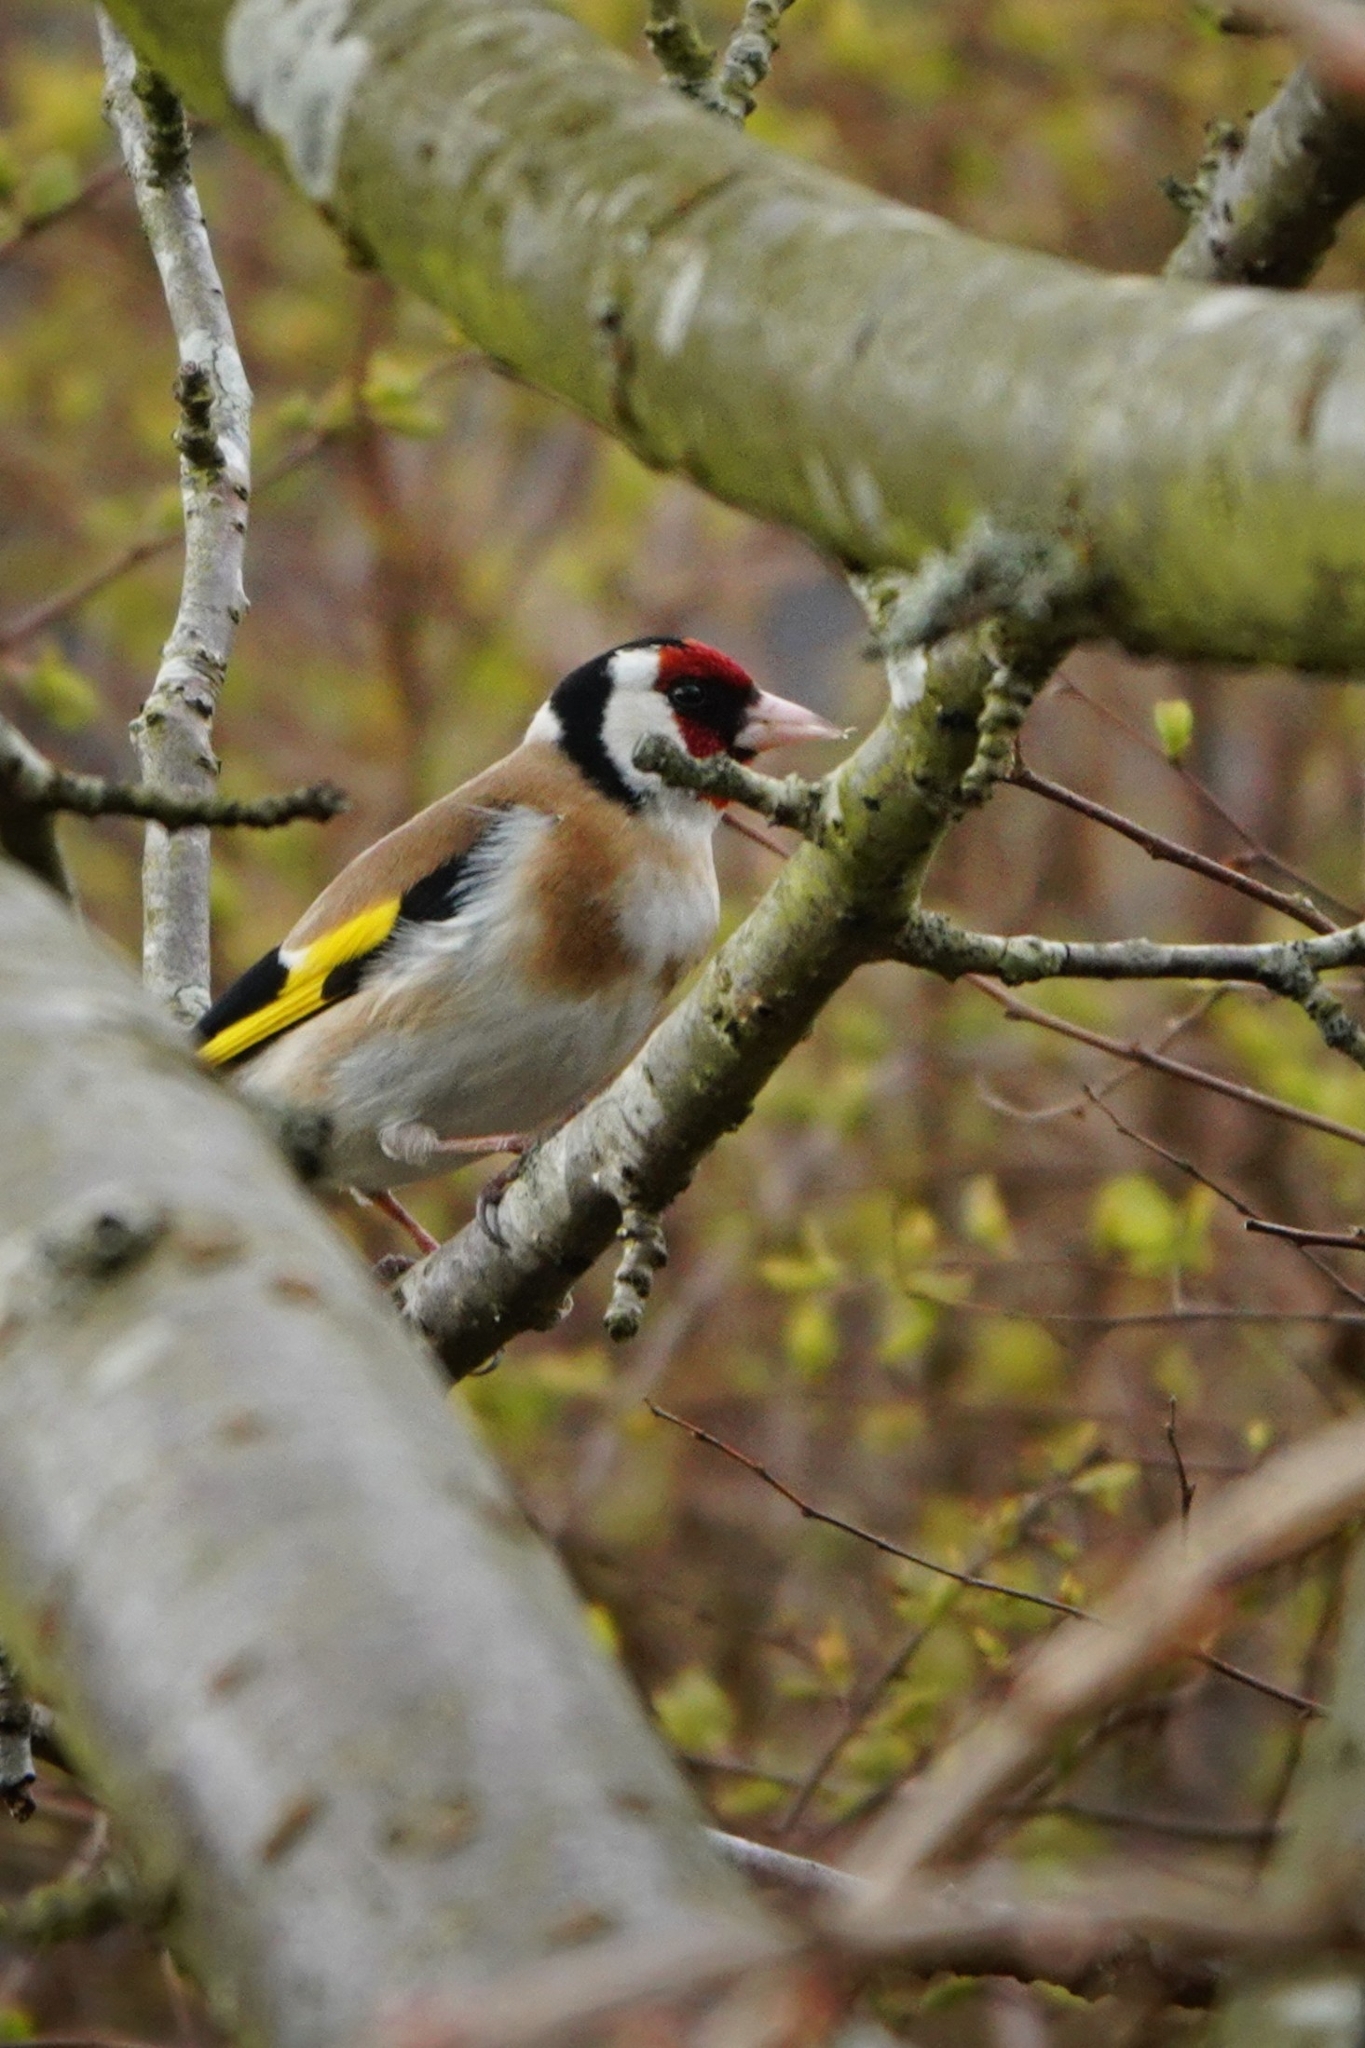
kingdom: Animalia
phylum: Chordata
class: Aves
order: Passeriformes
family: Fringillidae
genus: Carduelis
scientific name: Carduelis carduelis
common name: European goldfinch
